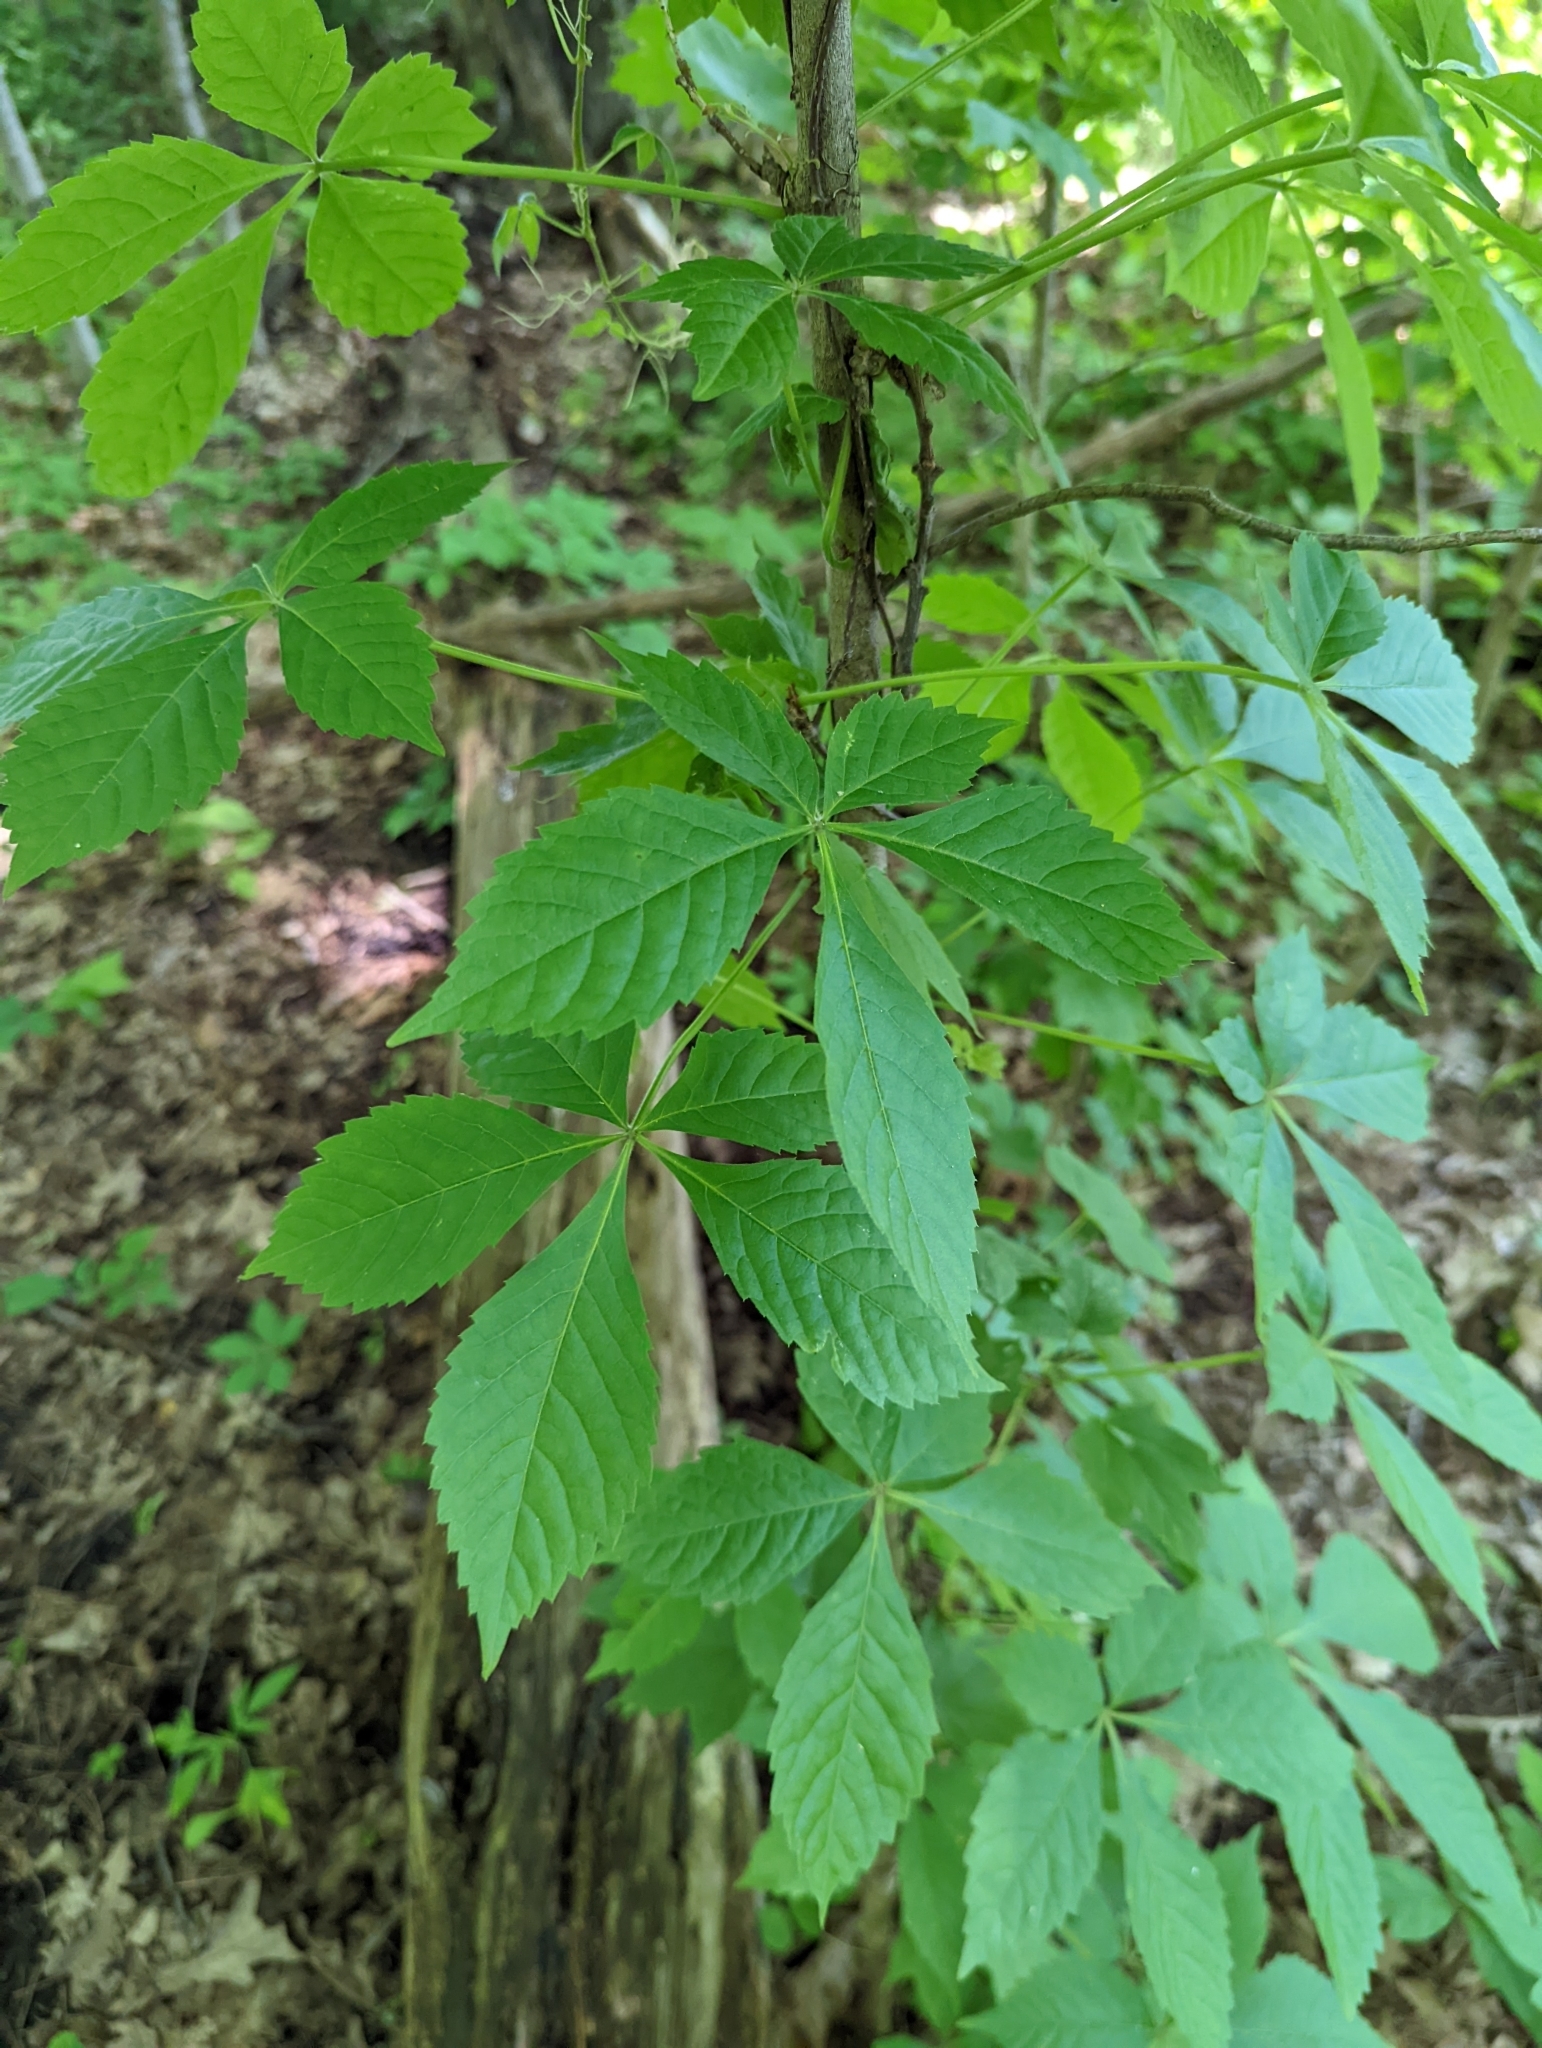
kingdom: Plantae
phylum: Tracheophyta
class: Magnoliopsida
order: Vitales
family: Vitaceae
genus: Parthenocissus
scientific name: Parthenocissus quinquefolia
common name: Virginia-creeper
